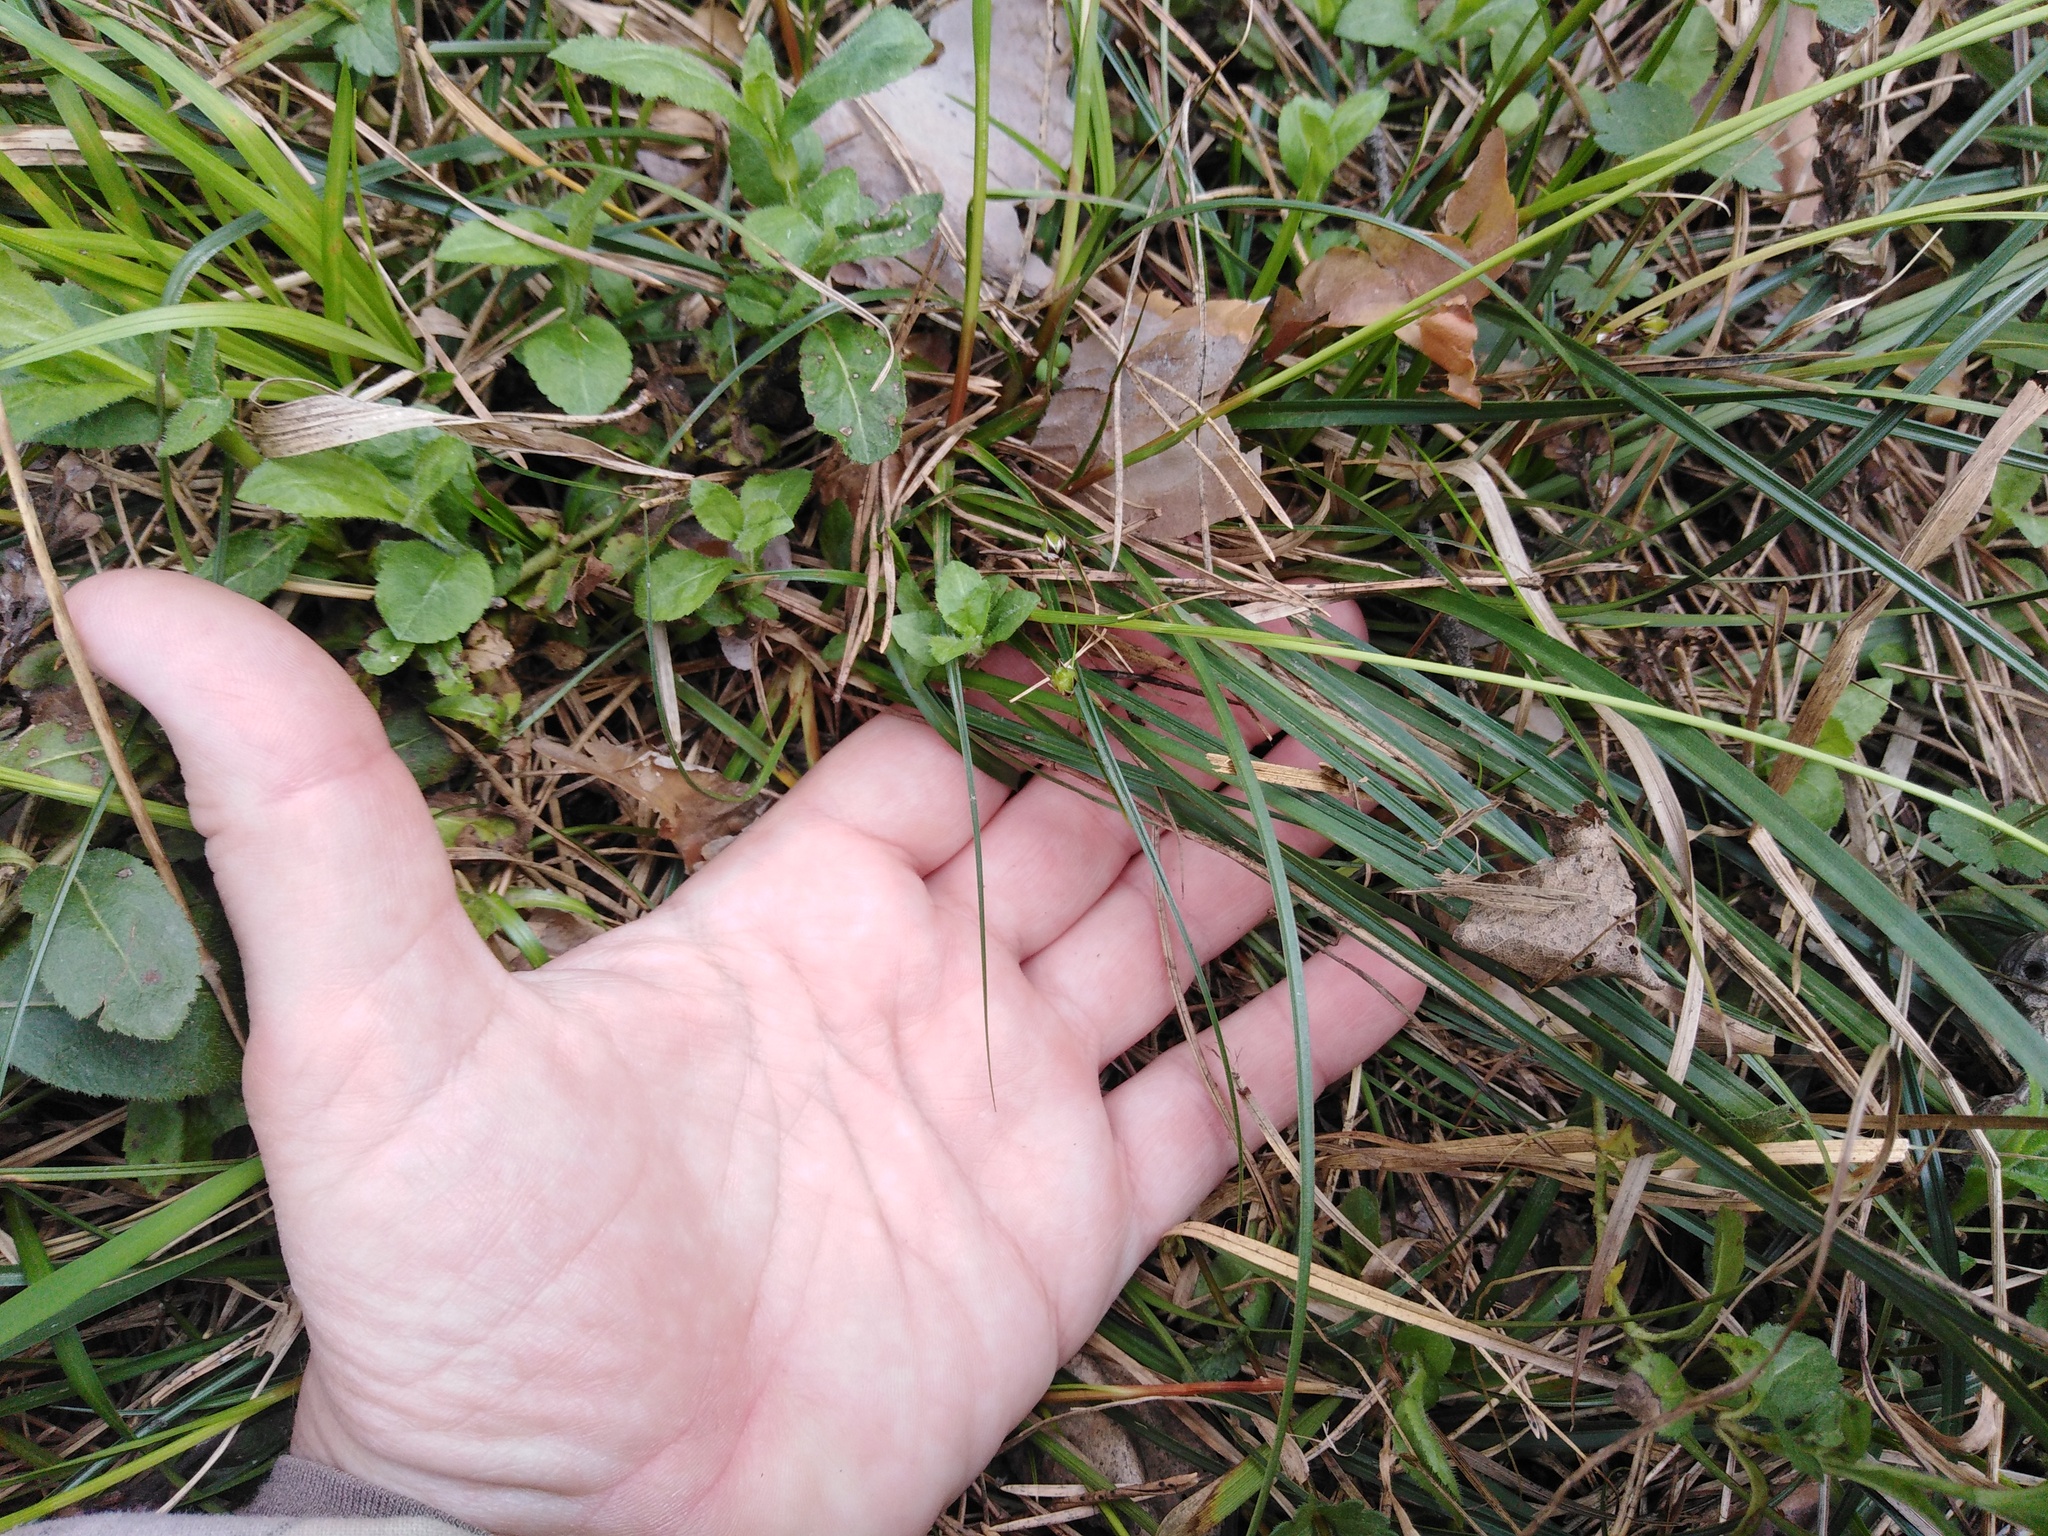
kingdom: Plantae
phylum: Tracheophyta
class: Liliopsida
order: Poales
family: Cyperaceae
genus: Carex
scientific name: Carex ericetorum
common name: Rare spring-sedge
